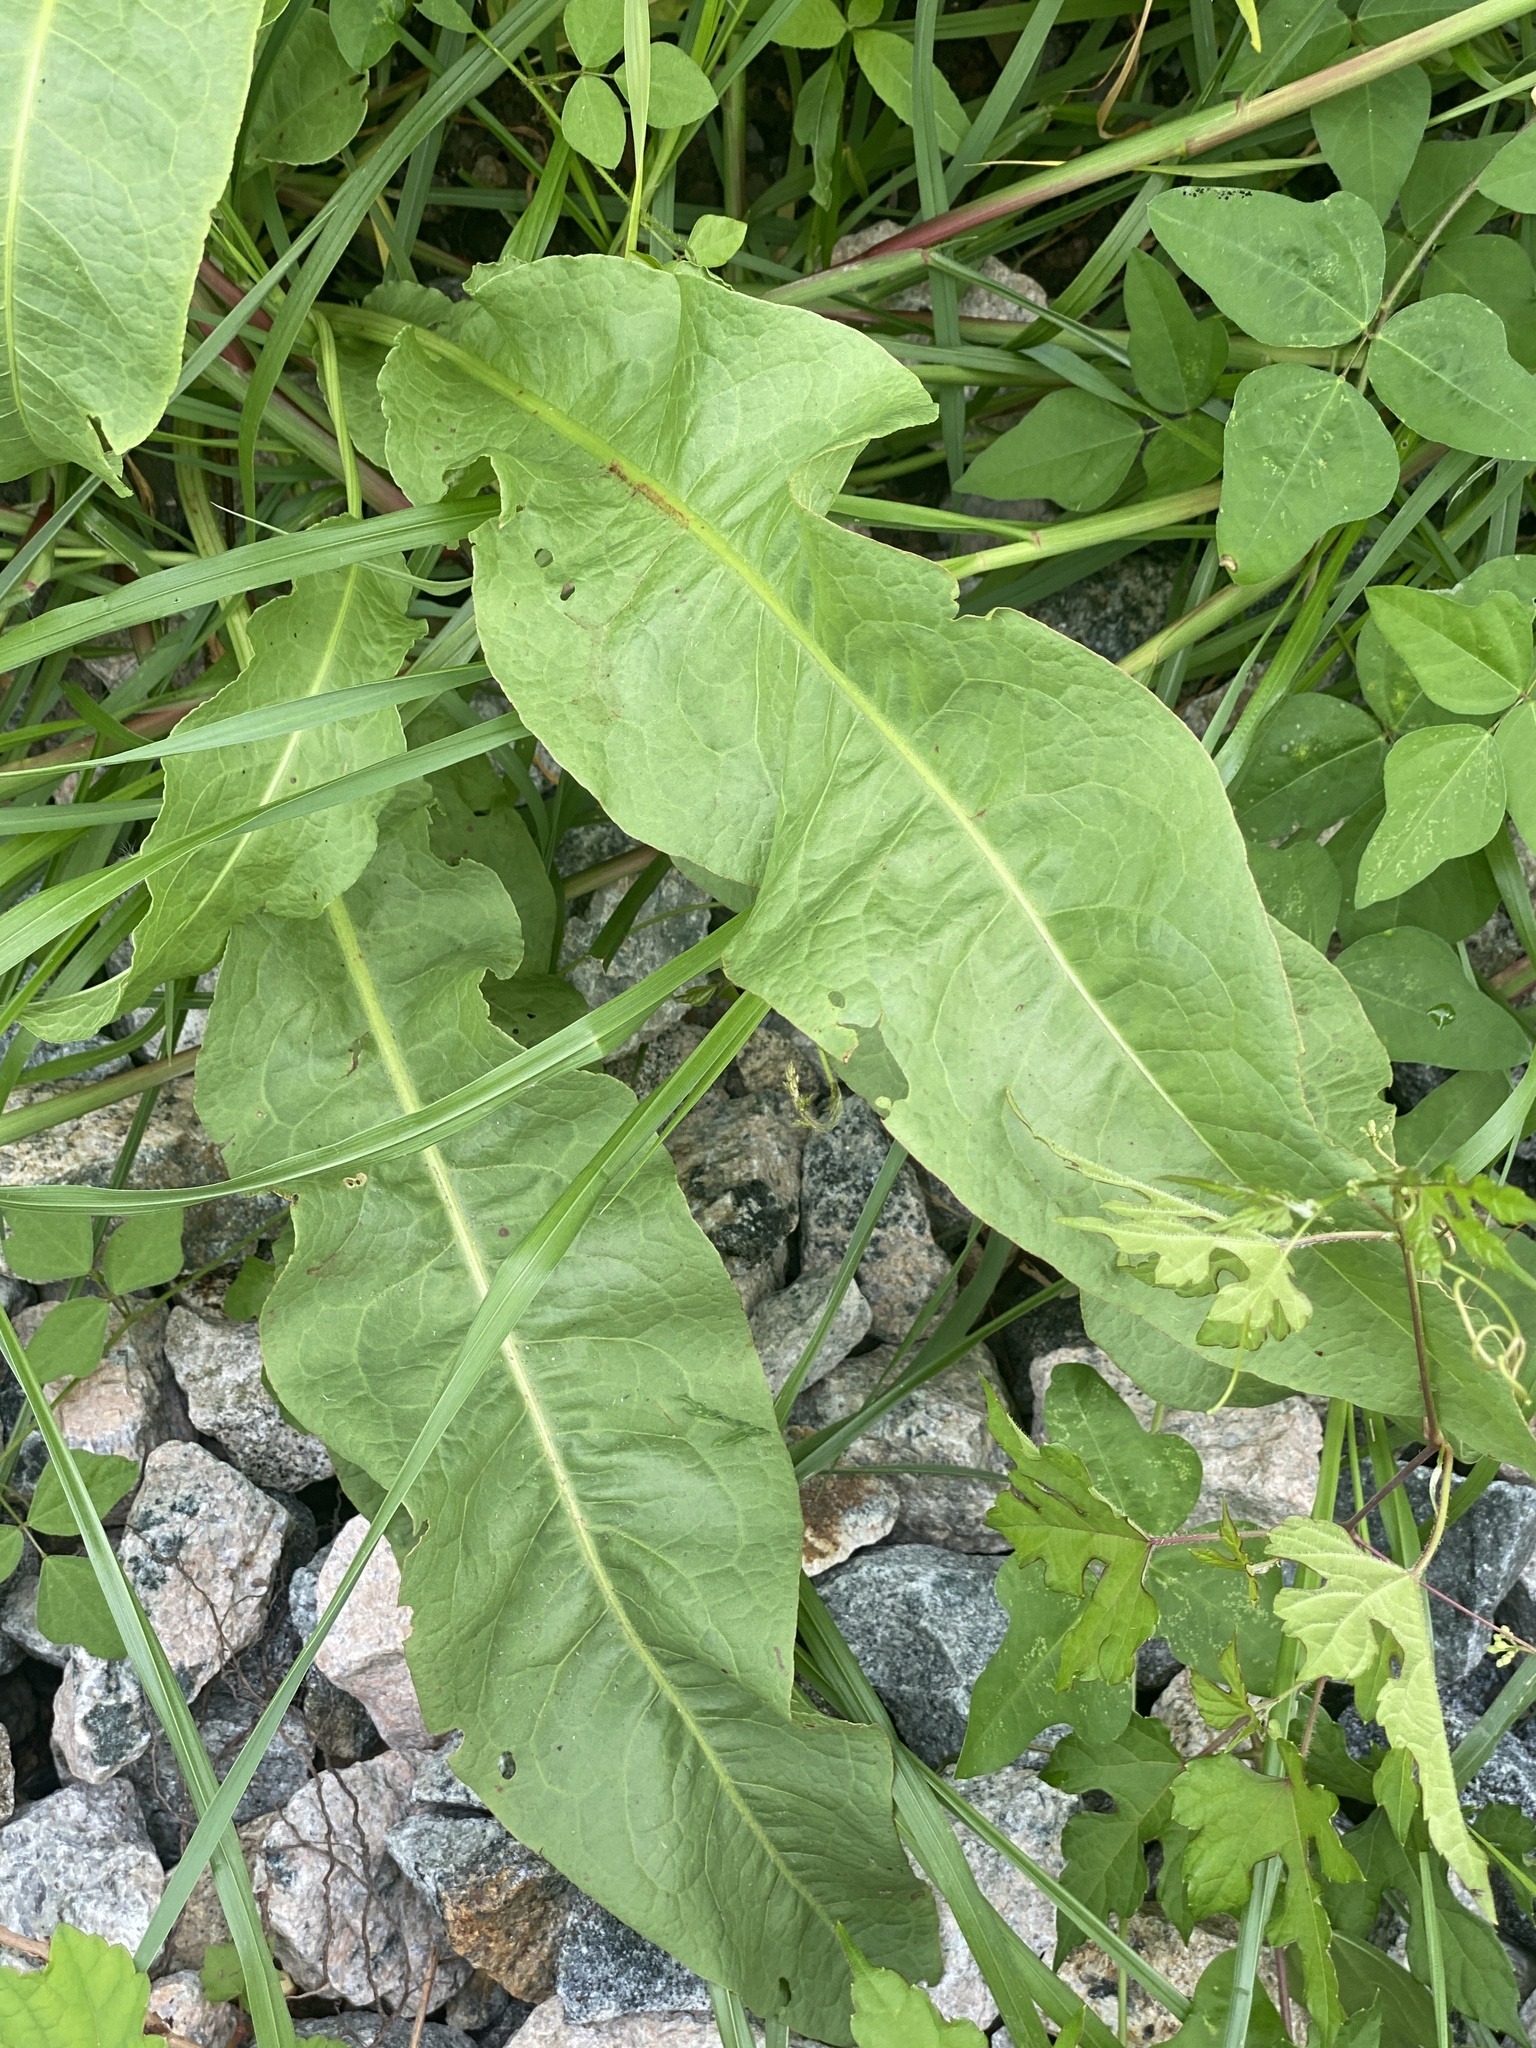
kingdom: Plantae
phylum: Tracheophyta
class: Magnoliopsida
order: Caryophyllales
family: Polygonaceae
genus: Rumex
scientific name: Rumex crispus
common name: Curled dock
